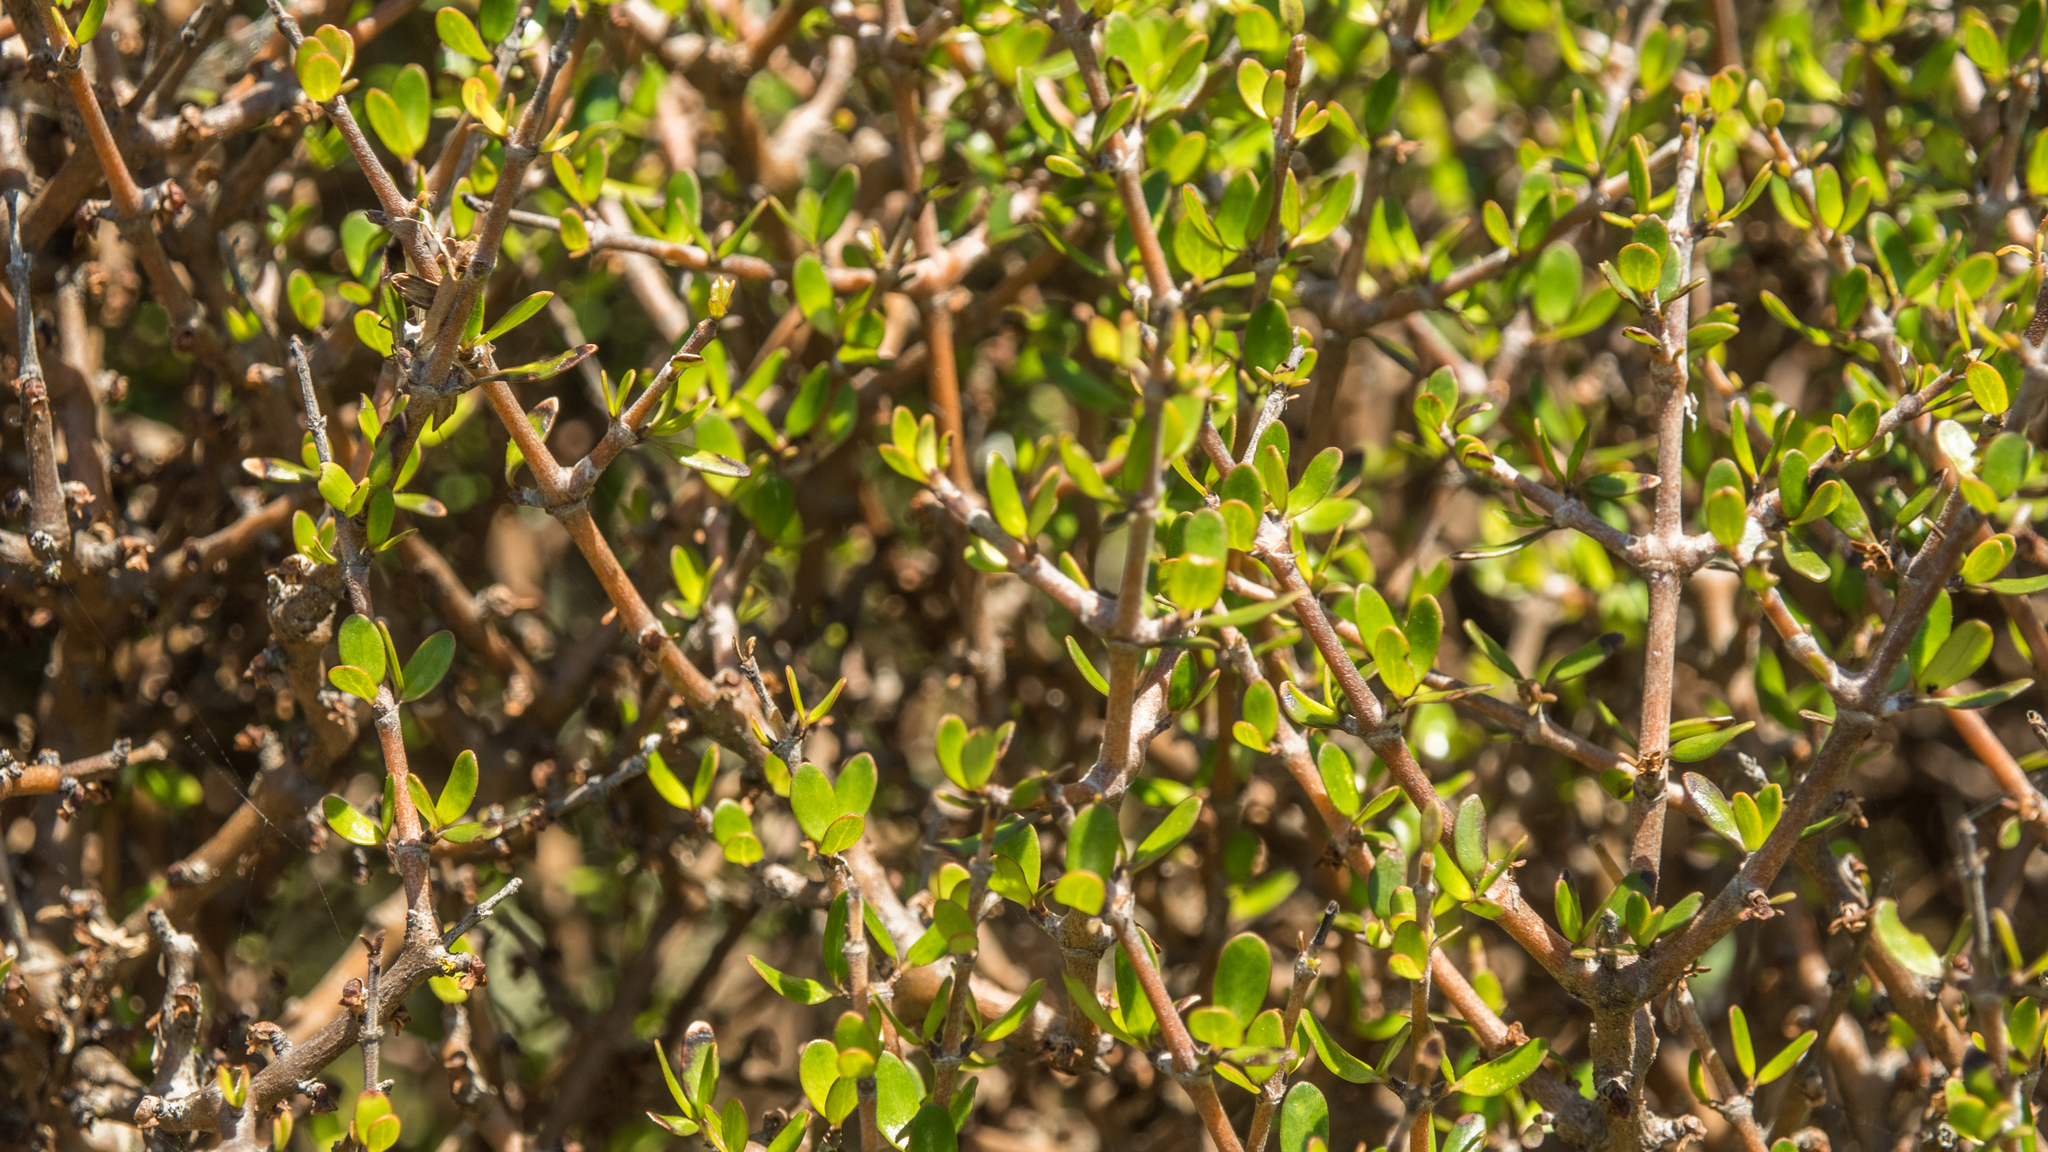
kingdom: Plantae
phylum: Tracheophyta
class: Magnoliopsida
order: Gentianales
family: Rubiaceae
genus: Coprosma
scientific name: Coprosma propinqua
